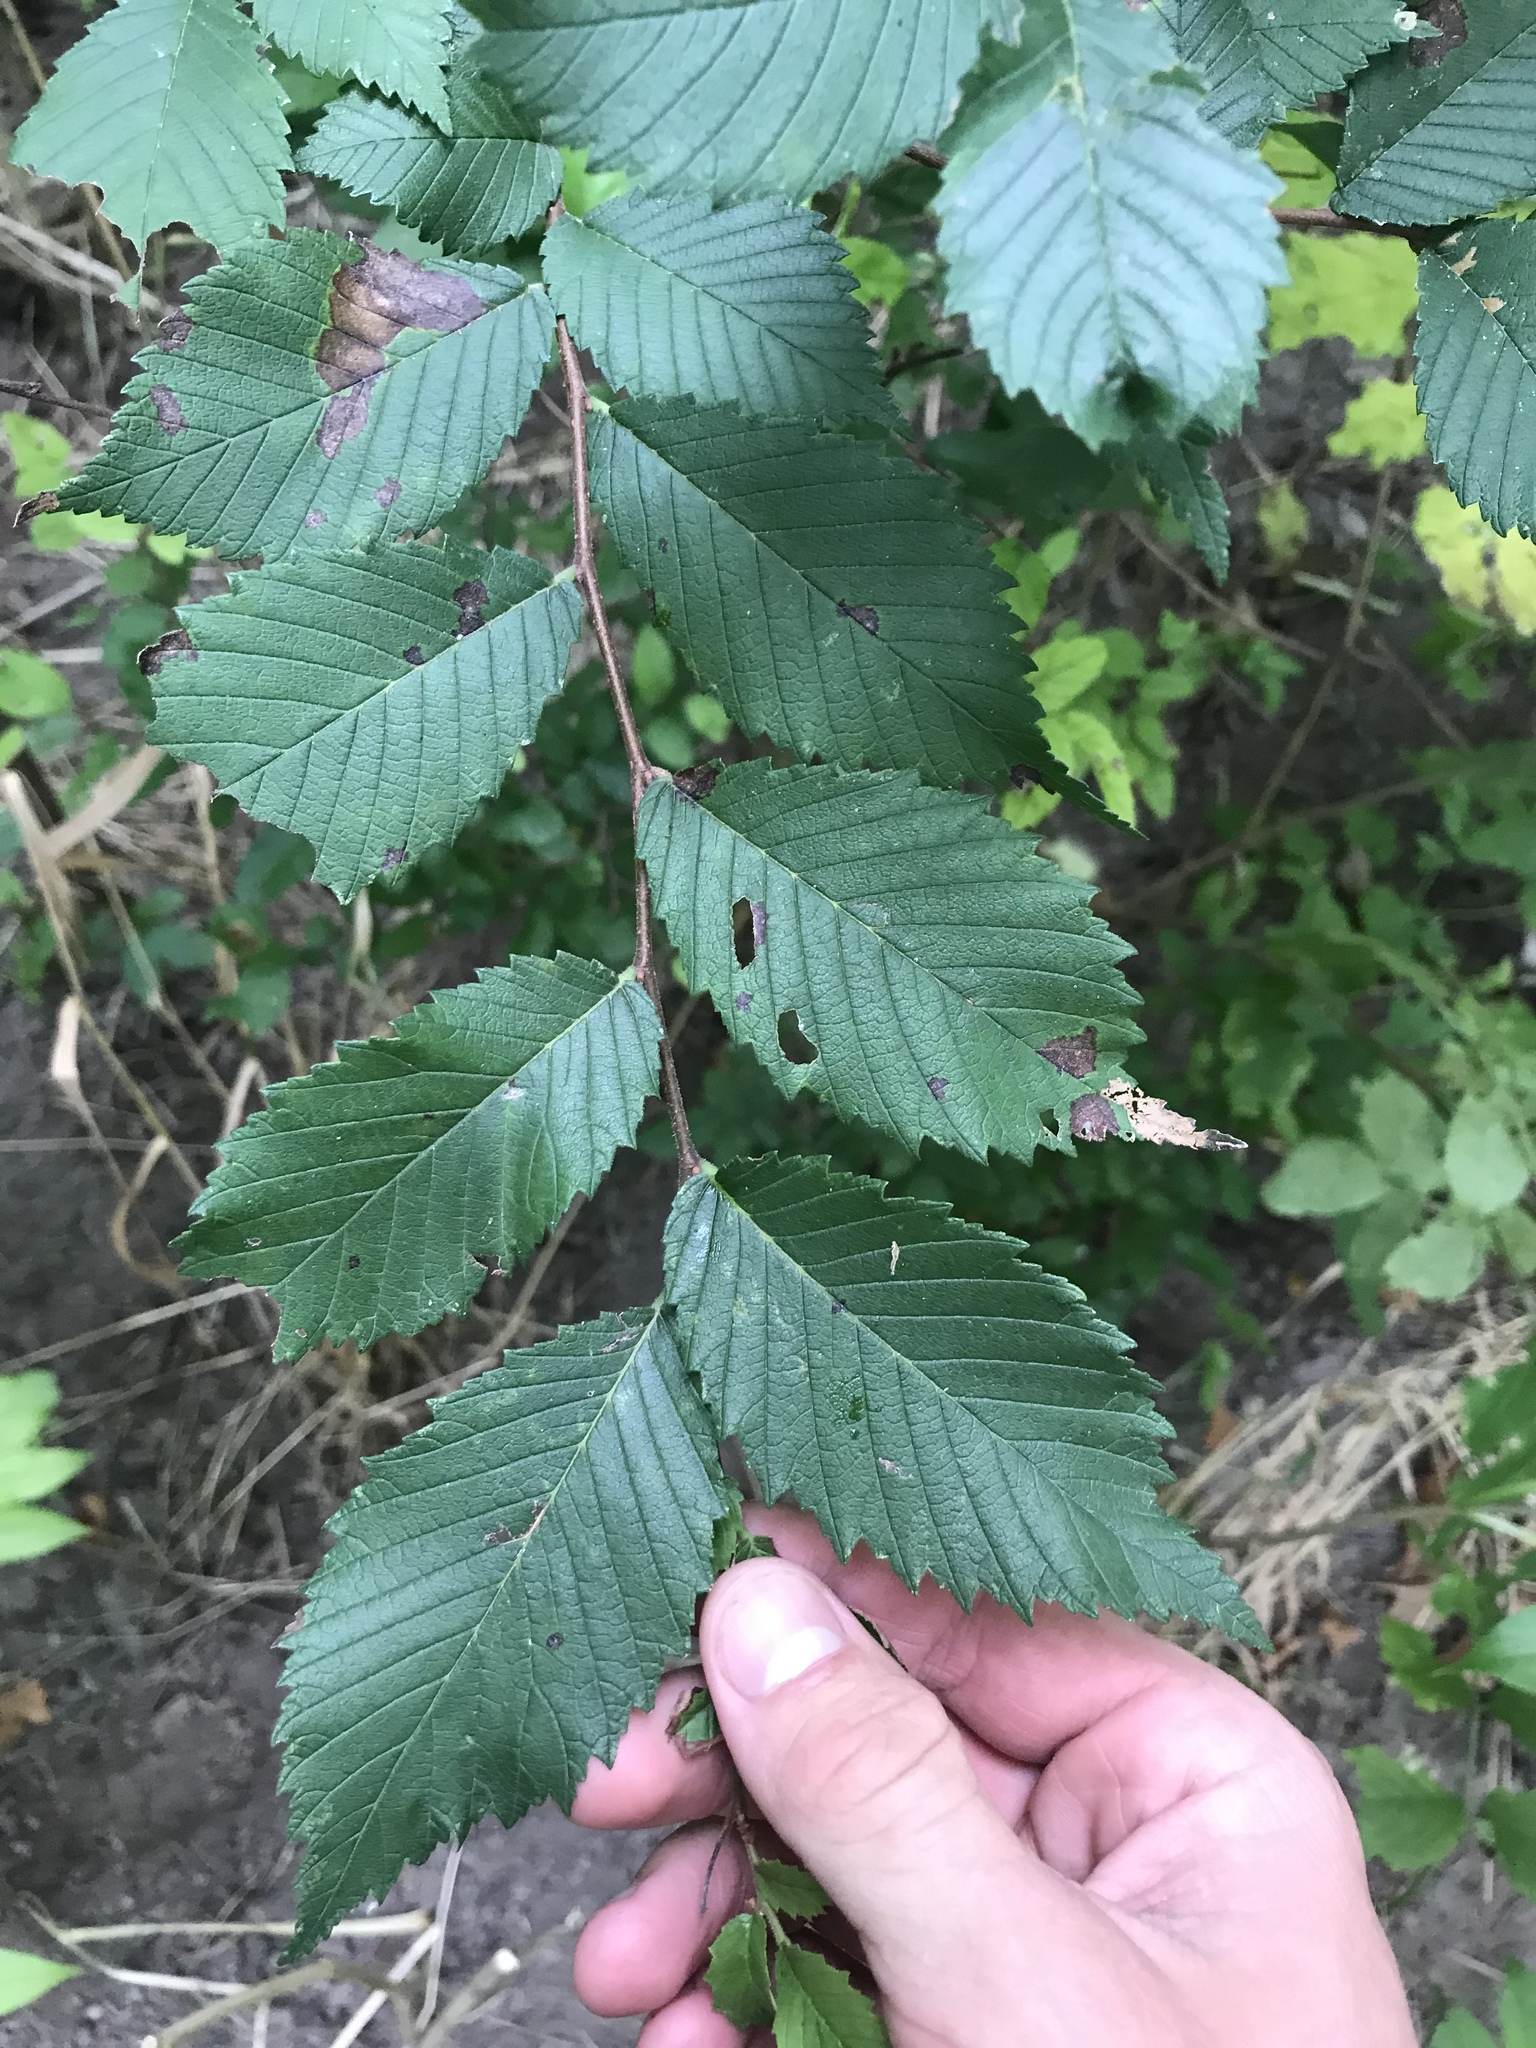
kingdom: Plantae
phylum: Tracheophyta
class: Magnoliopsida
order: Rosales
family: Ulmaceae
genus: Ulmus
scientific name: Ulmus americana
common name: American elm
